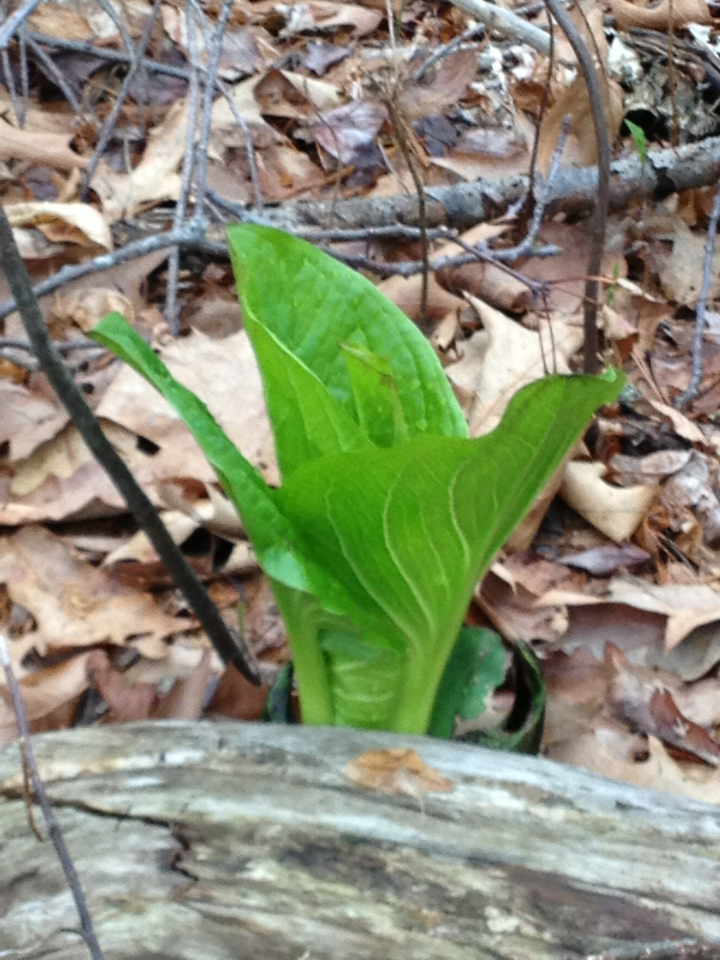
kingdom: Plantae
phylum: Tracheophyta
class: Liliopsida
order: Alismatales
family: Araceae
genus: Symplocarpus
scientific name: Symplocarpus foetidus
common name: Eastern skunk cabbage
